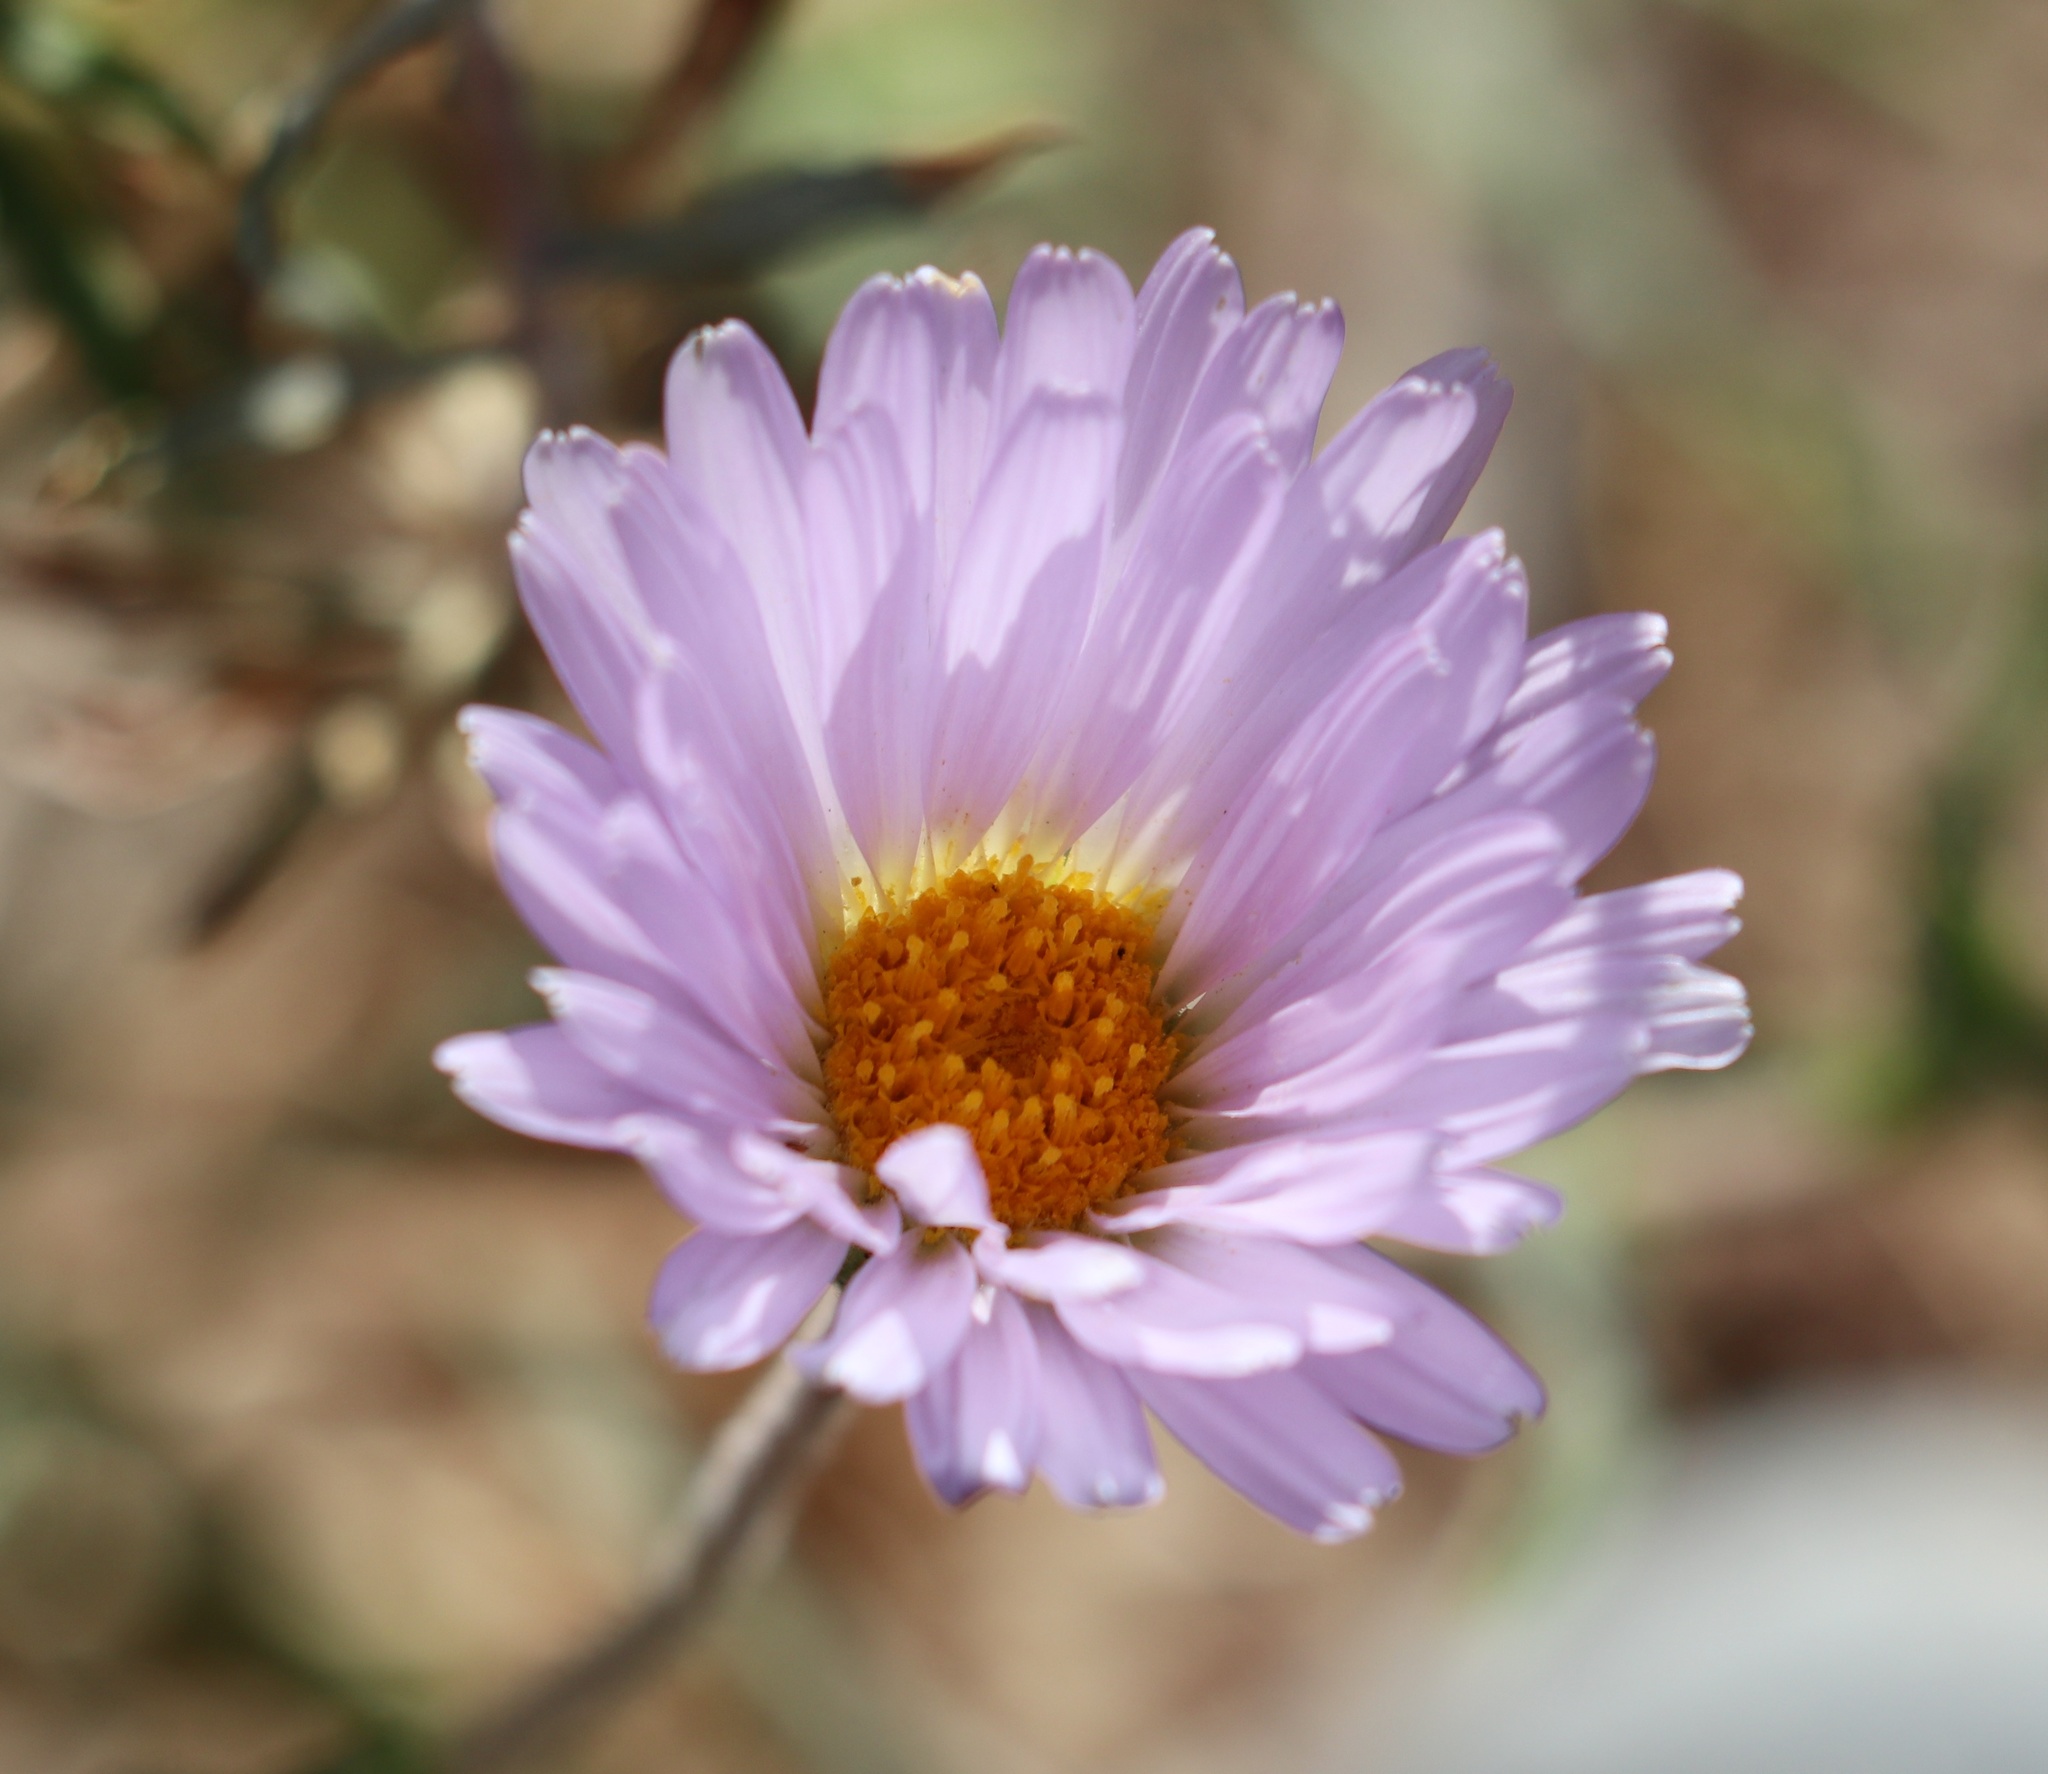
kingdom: Plantae
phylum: Tracheophyta
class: Magnoliopsida
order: Asterales
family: Asteraceae
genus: Xylorhiza
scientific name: Xylorhiza tortifolia
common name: Hurt-leaf woody-aster
